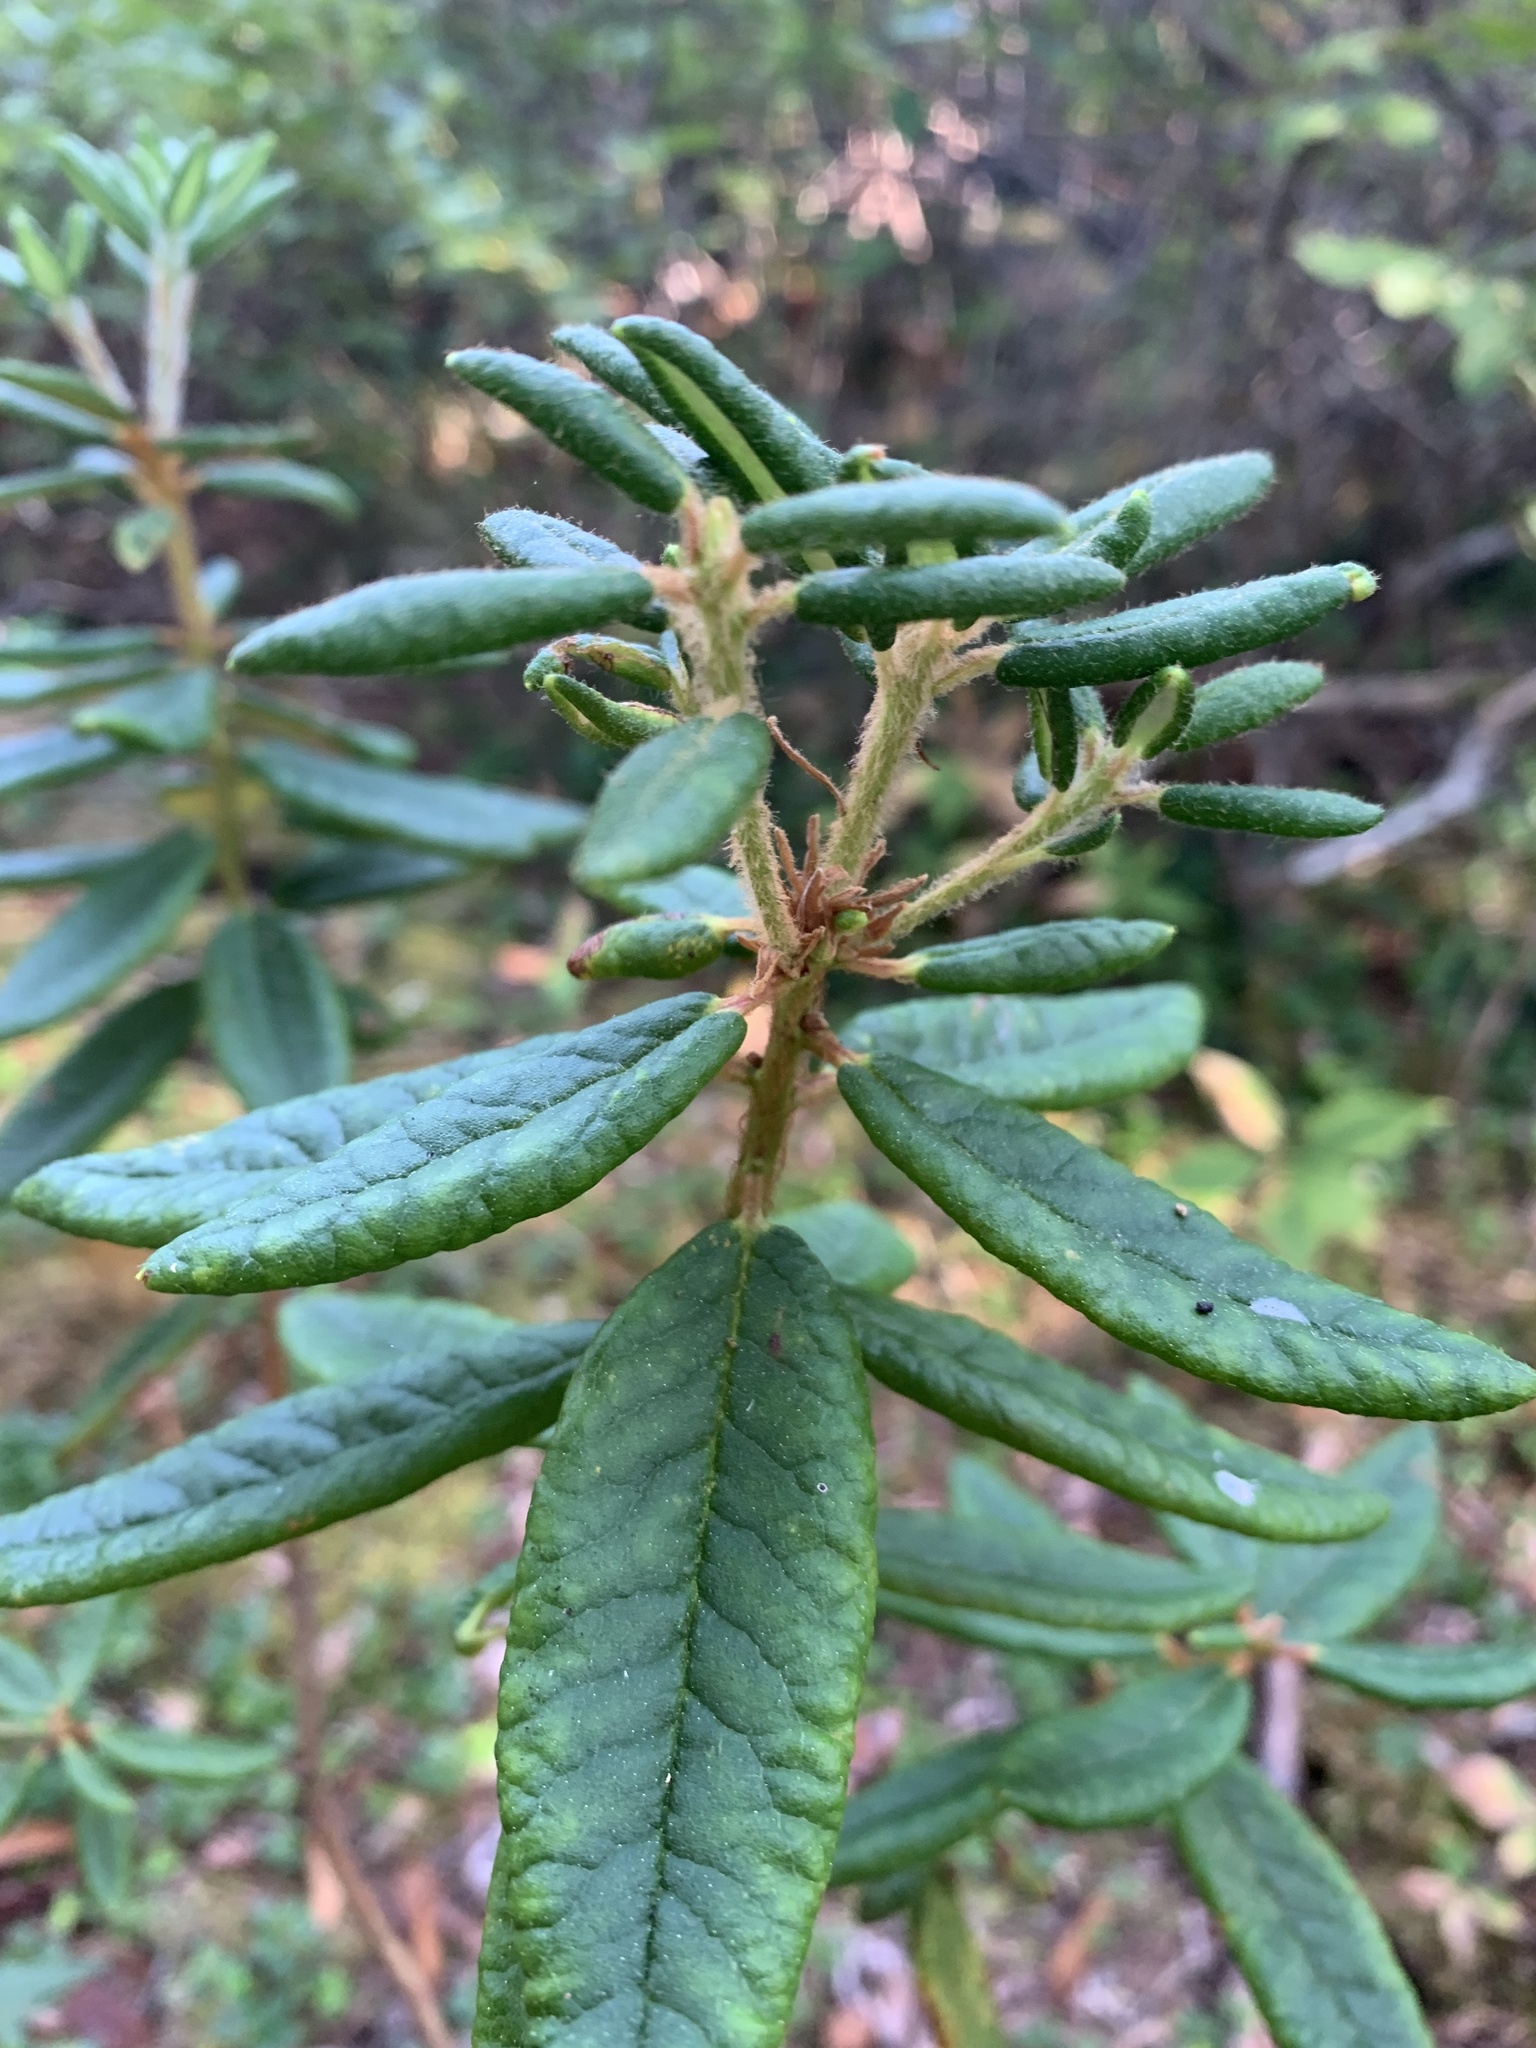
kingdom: Plantae
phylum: Tracheophyta
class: Magnoliopsida
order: Ericales
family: Ericaceae
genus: Rhododendron
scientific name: Rhododendron groenlandicum
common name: Bog labrador tea
